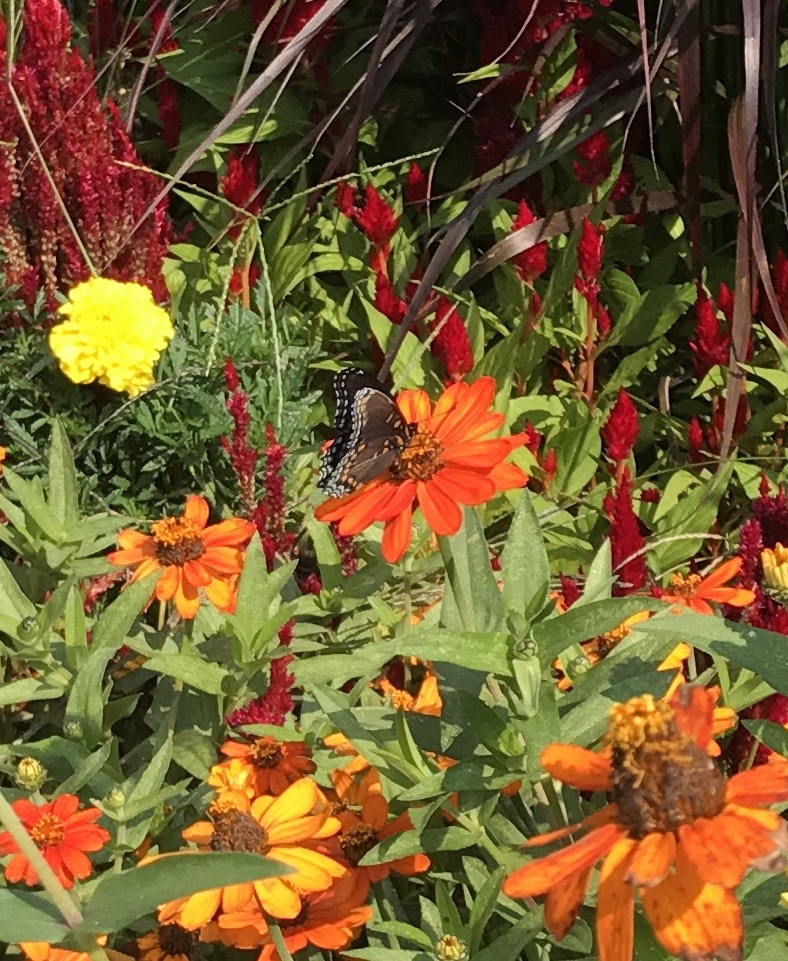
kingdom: Animalia
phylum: Arthropoda
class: Insecta
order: Lepidoptera
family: Nymphalidae
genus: Limenitis
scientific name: Limenitis astyanax
